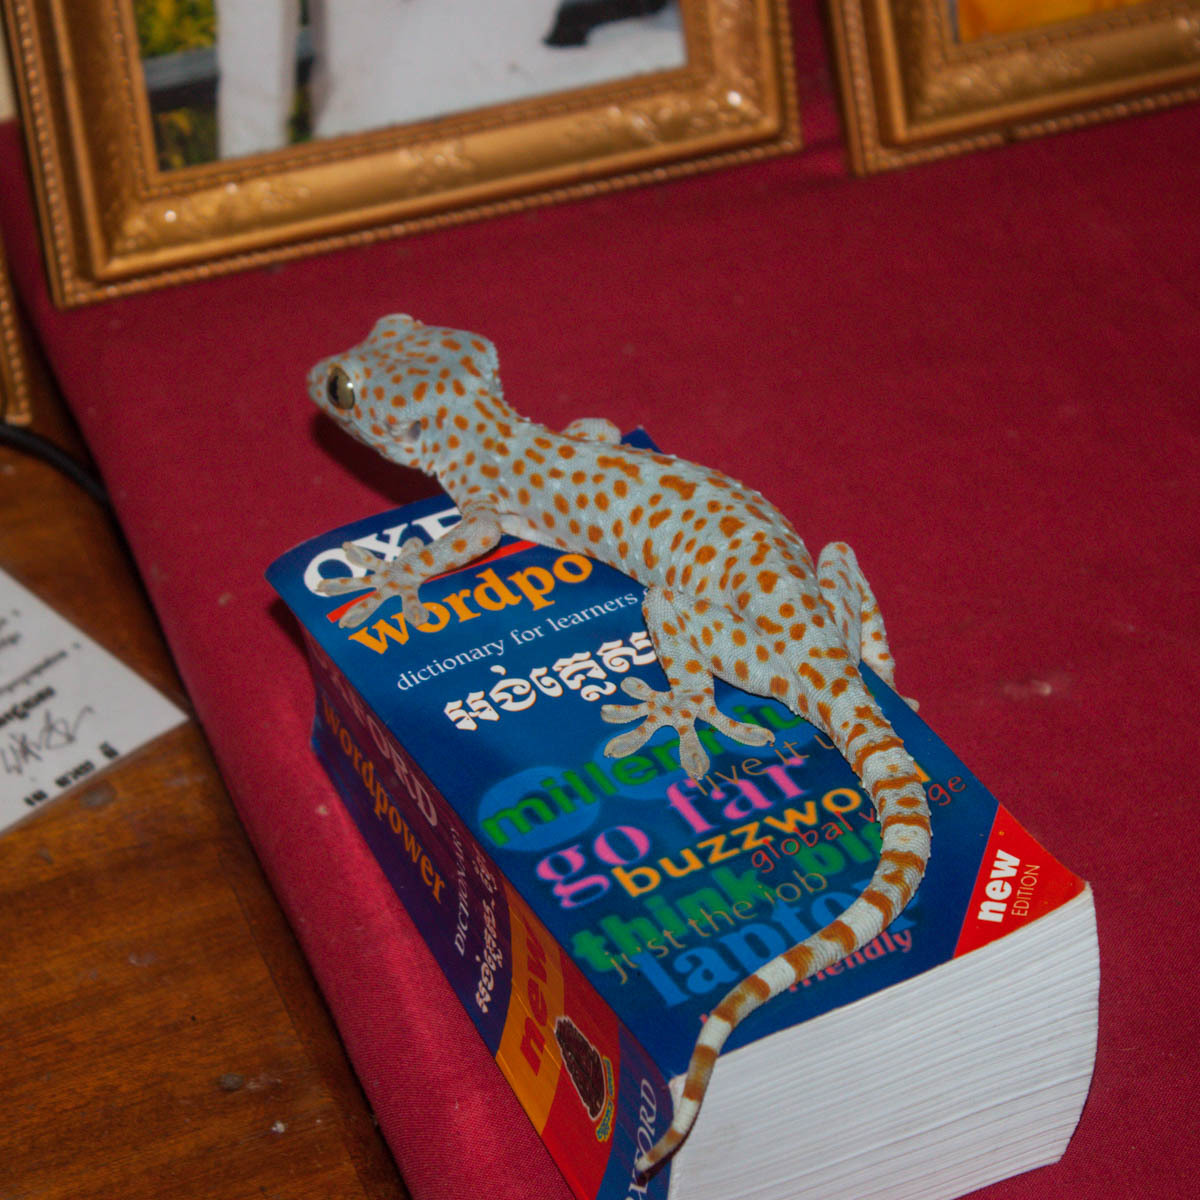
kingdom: Animalia
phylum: Chordata
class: Squamata
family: Gekkonidae
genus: Gekko
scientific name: Gekko gecko
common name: Tokay gecko
